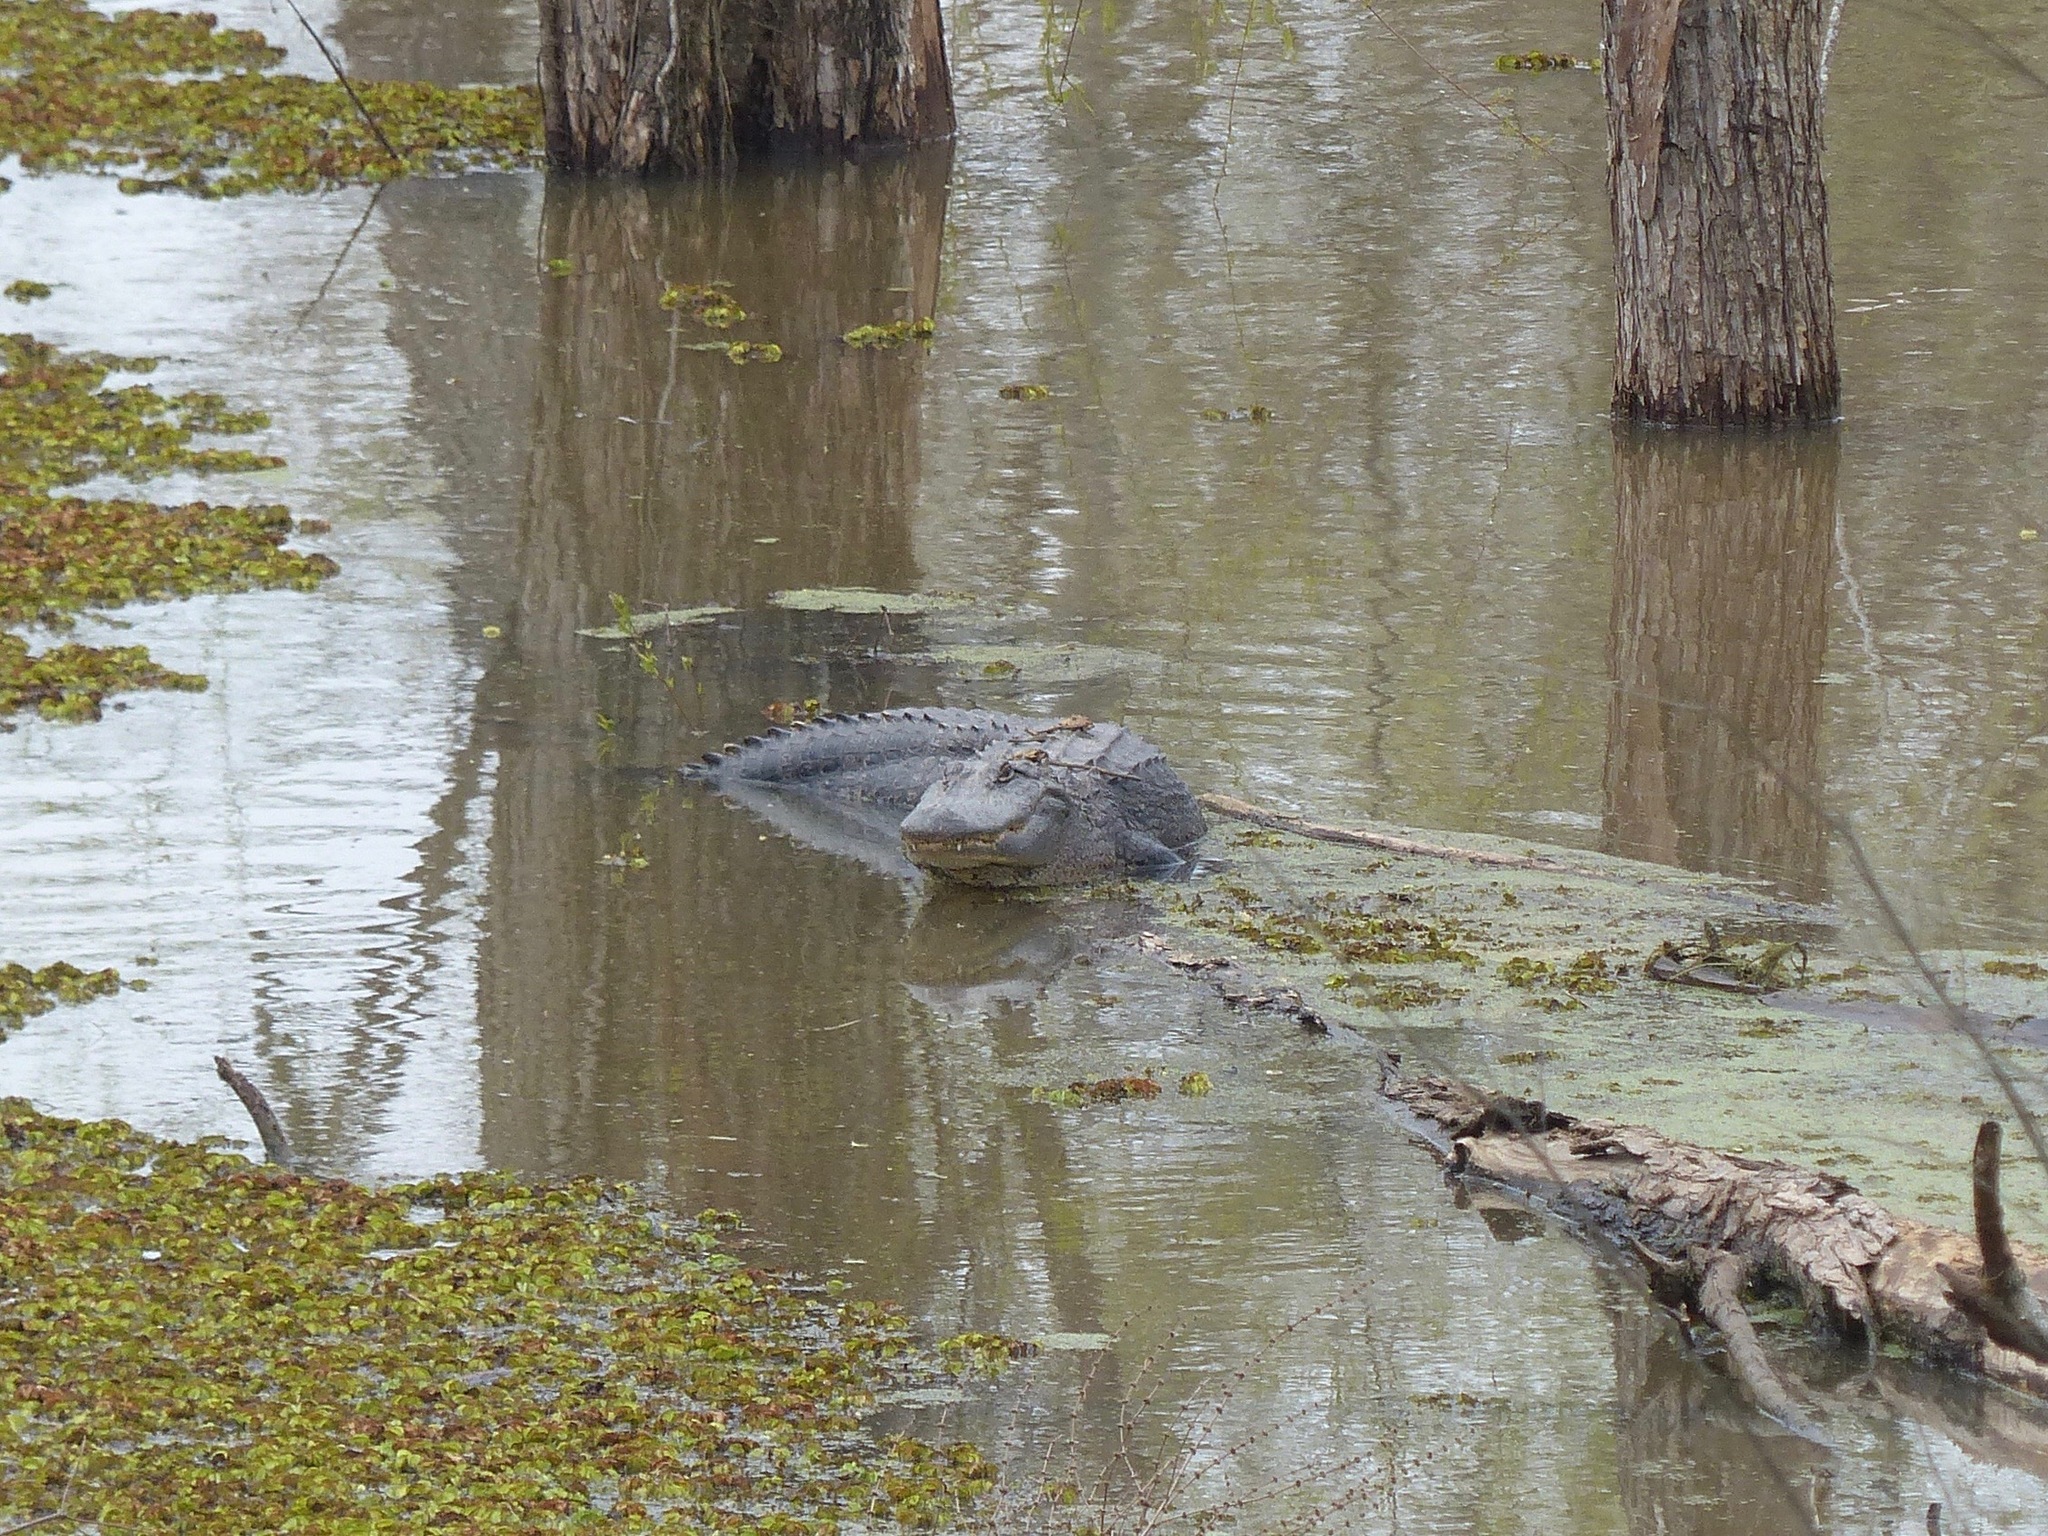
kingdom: Animalia
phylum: Chordata
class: Crocodylia
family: Alligatoridae
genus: Alligator
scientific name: Alligator mississippiensis
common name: American alligator
